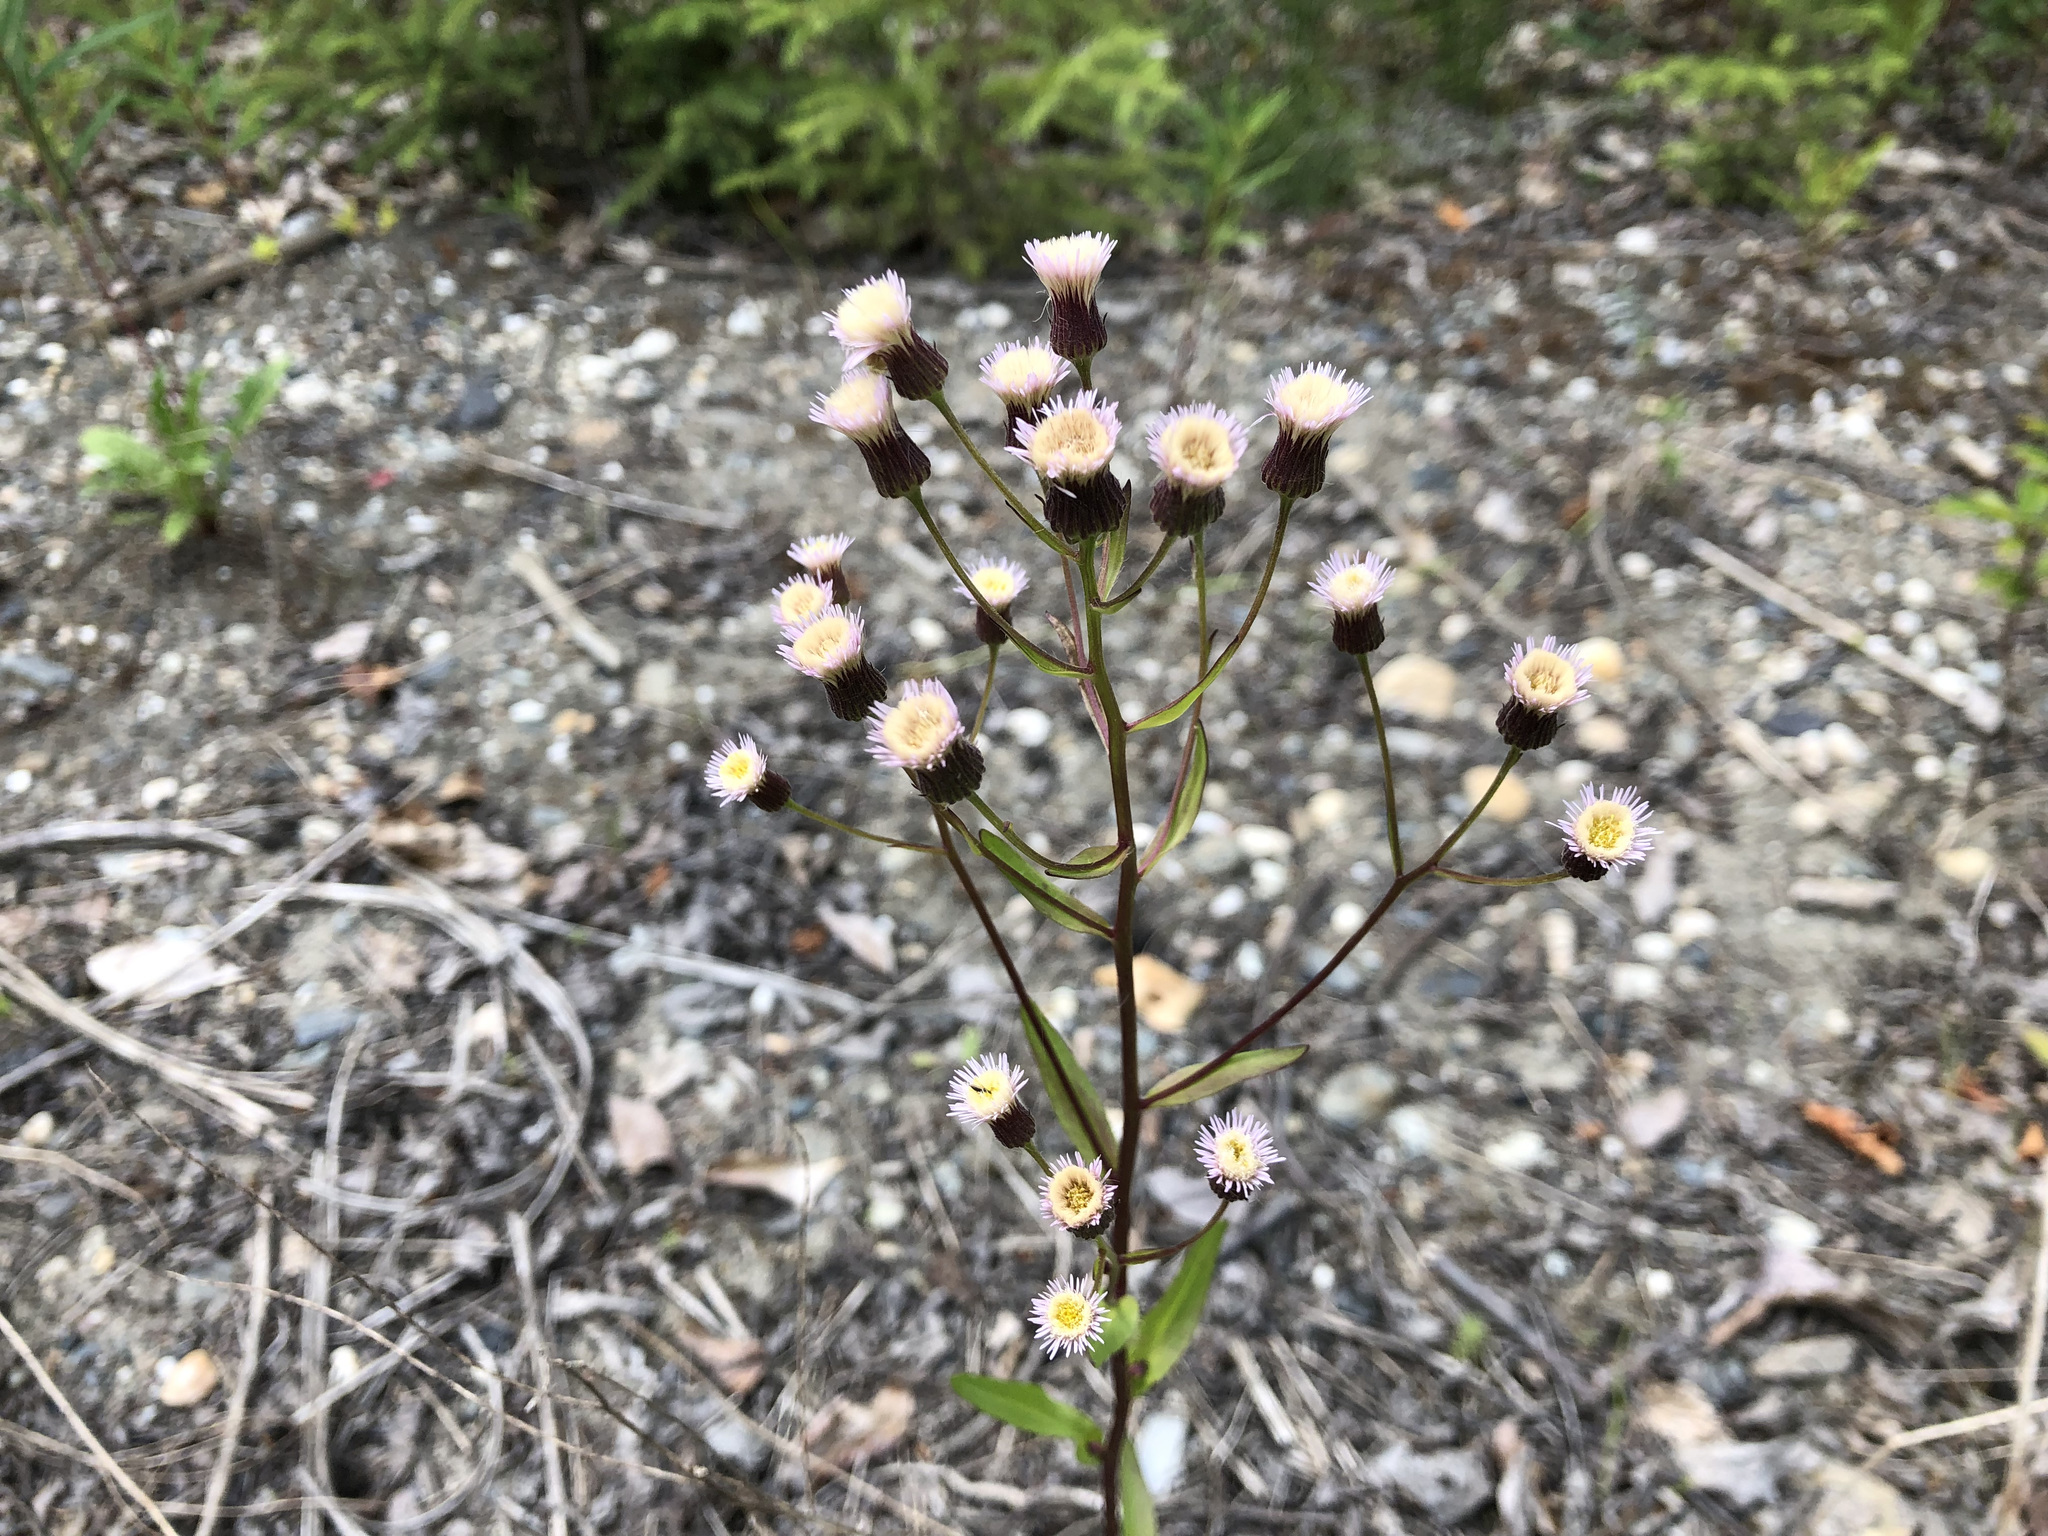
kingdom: Plantae
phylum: Tracheophyta
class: Magnoliopsida
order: Asterales
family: Asteraceae
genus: Erigeron
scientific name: Erigeron acris
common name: Blue fleabane
